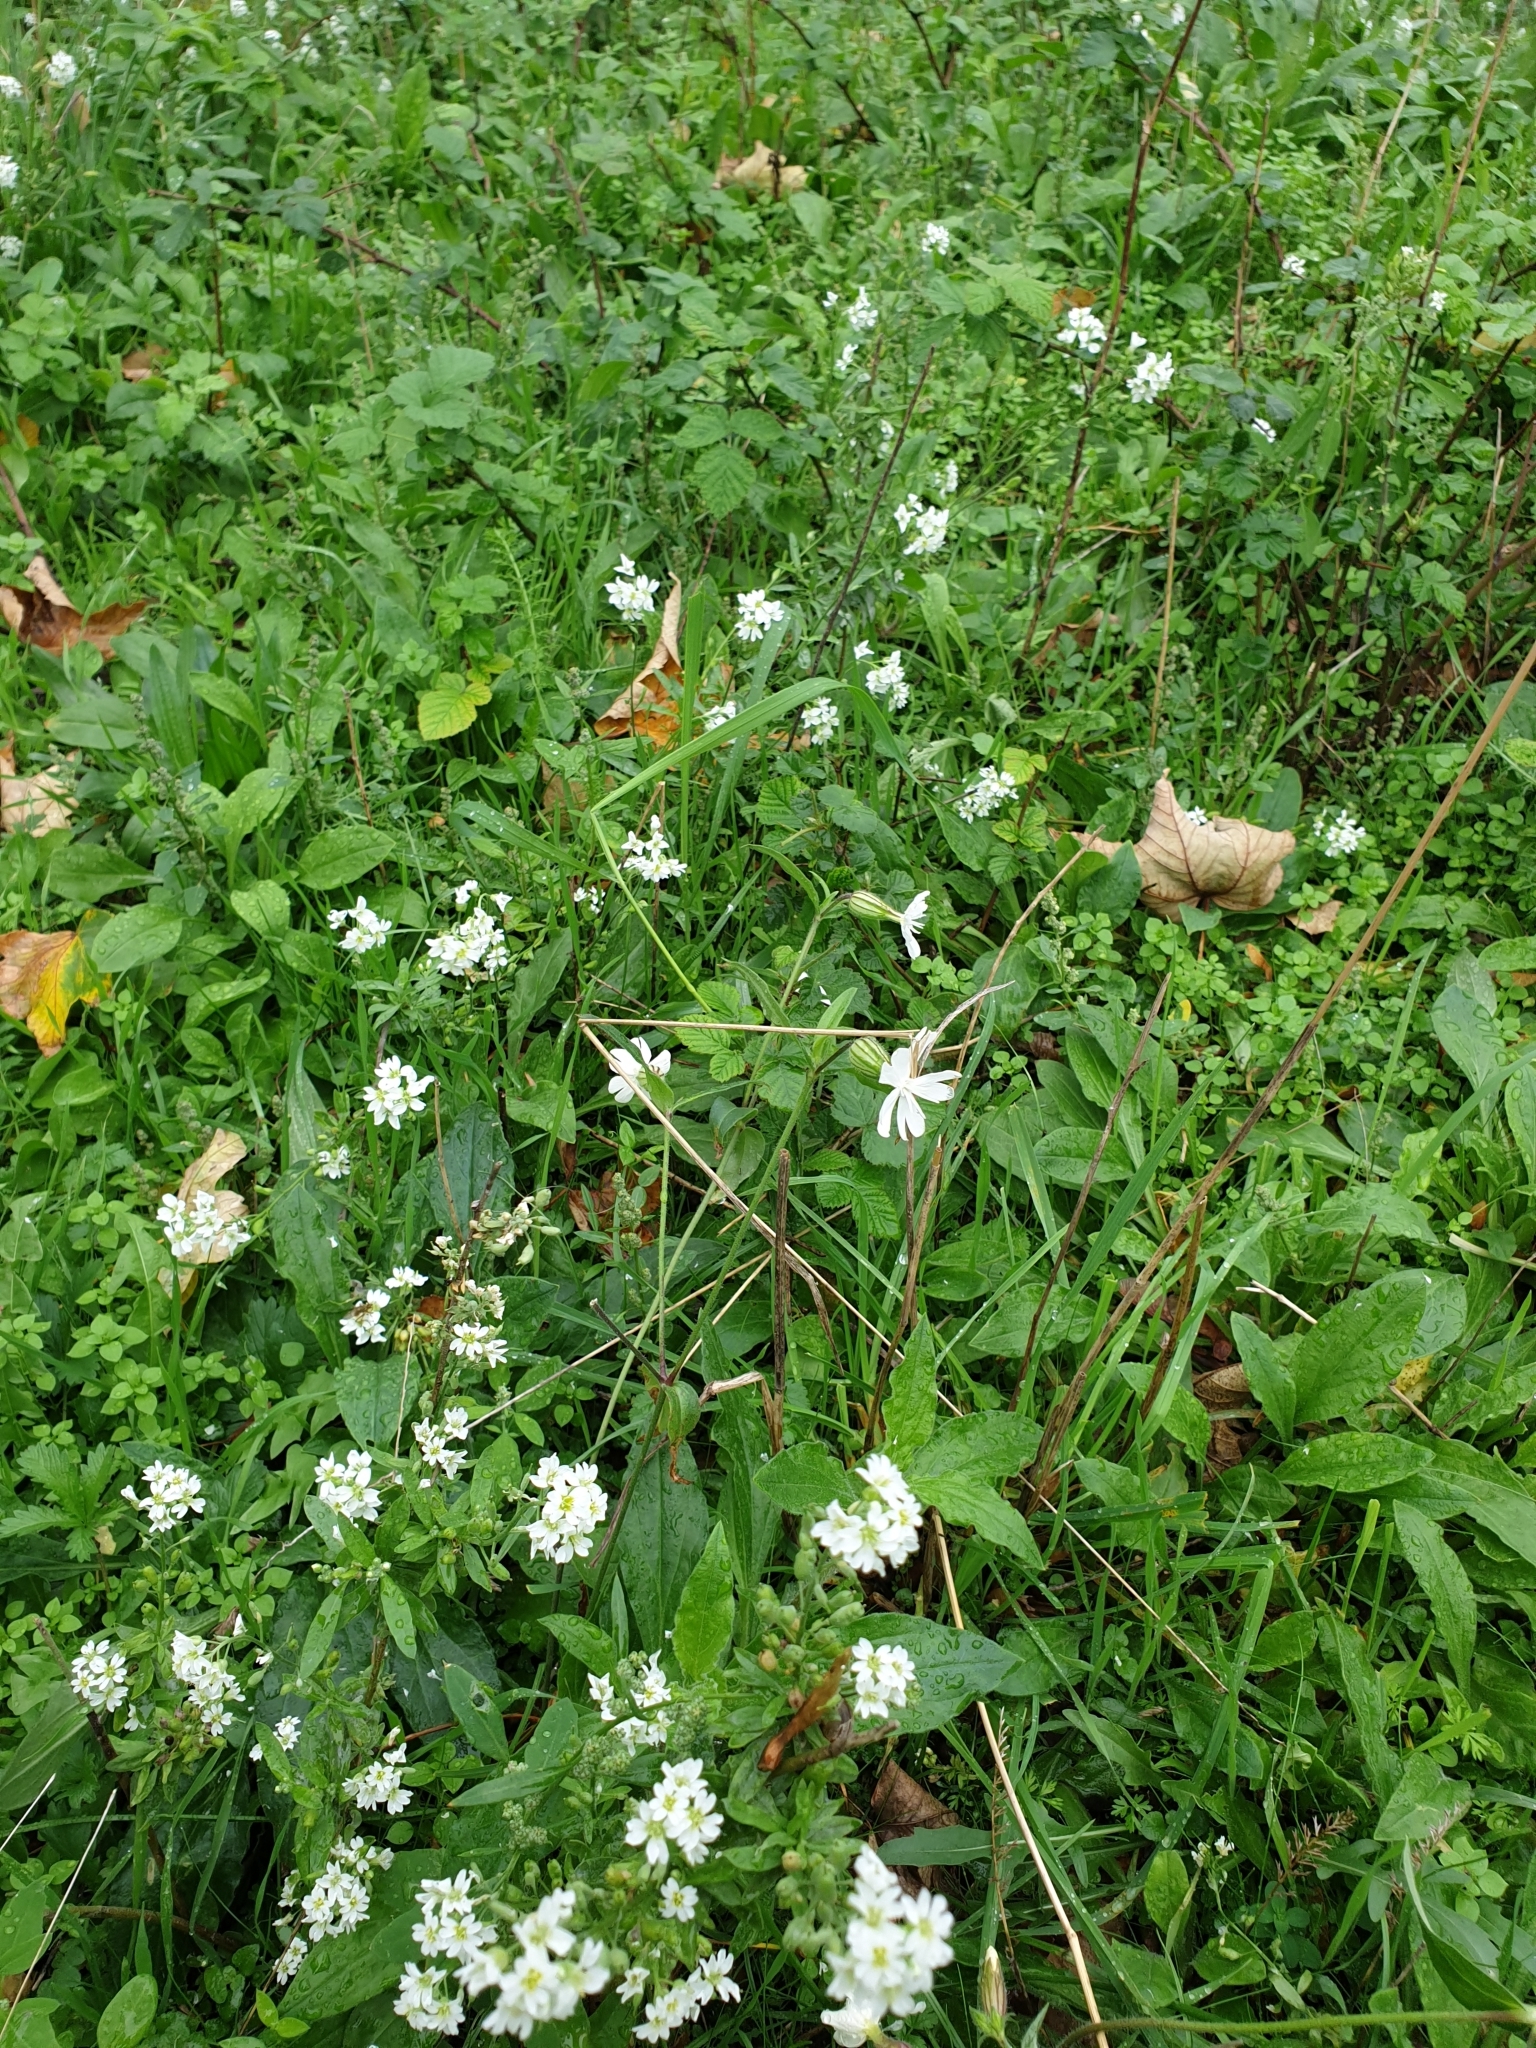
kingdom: Plantae
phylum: Tracheophyta
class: Magnoliopsida
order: Brassicales
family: Brassicaceae
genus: Berteroa
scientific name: Berteroa incana
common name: Hoary alison
